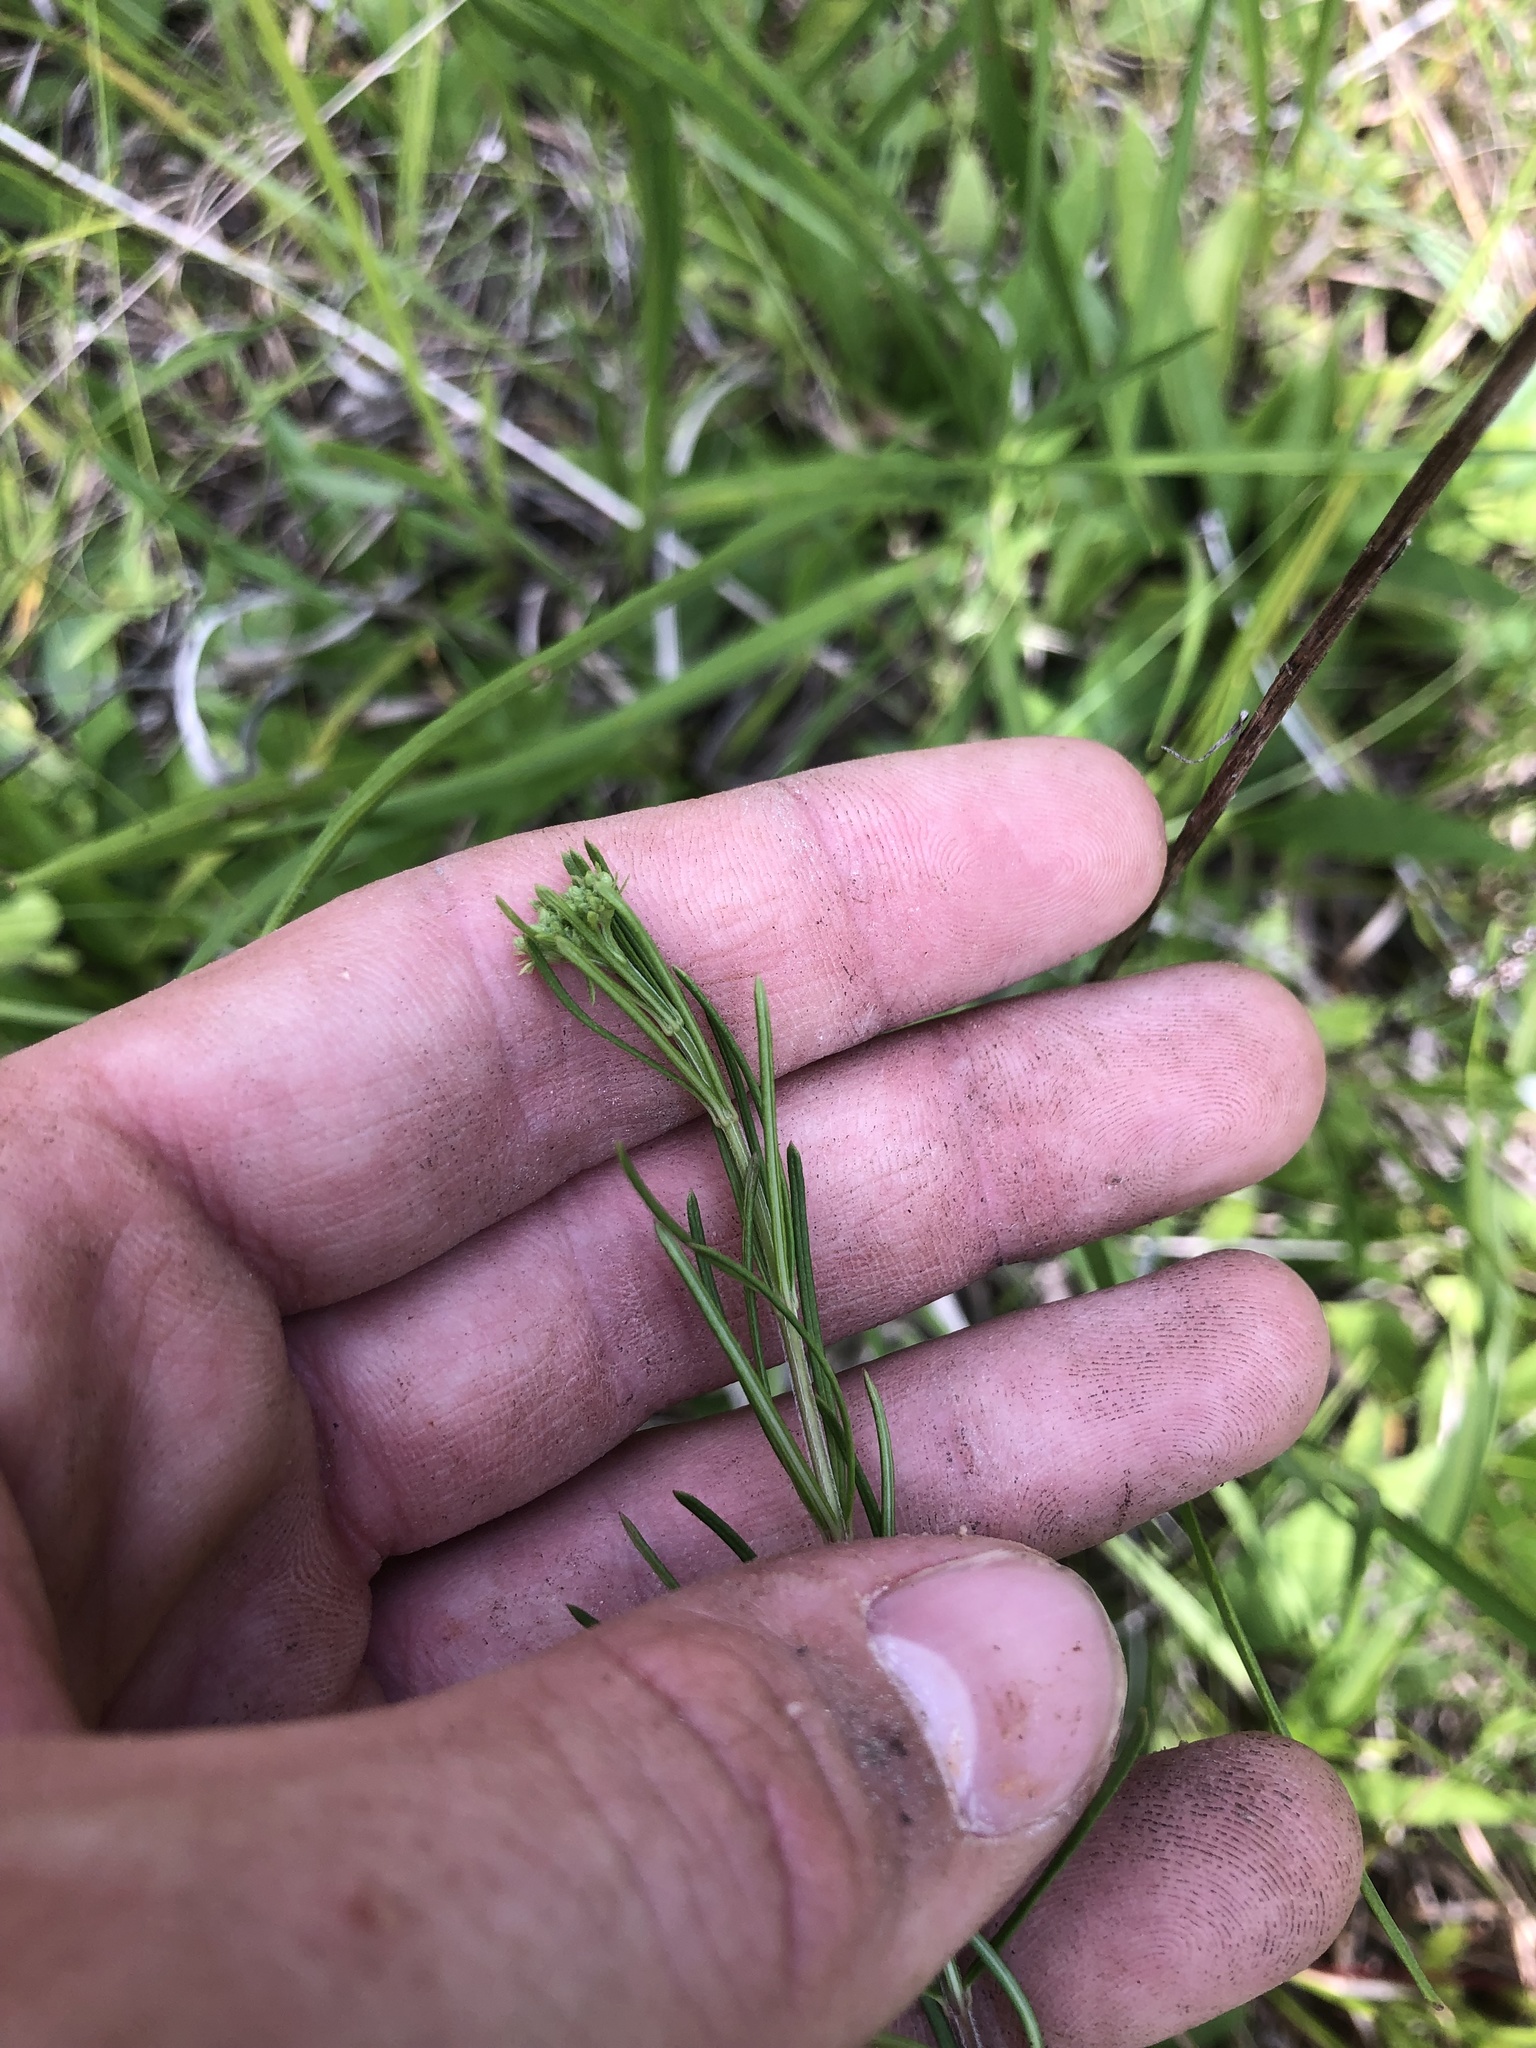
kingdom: Plantae
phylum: Tracheophyta
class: Magnoliopsida
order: Gentianales
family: Apocynaceae
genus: Asclepias
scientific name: Asclepias verticillata
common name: Eastern whorled milkweed
